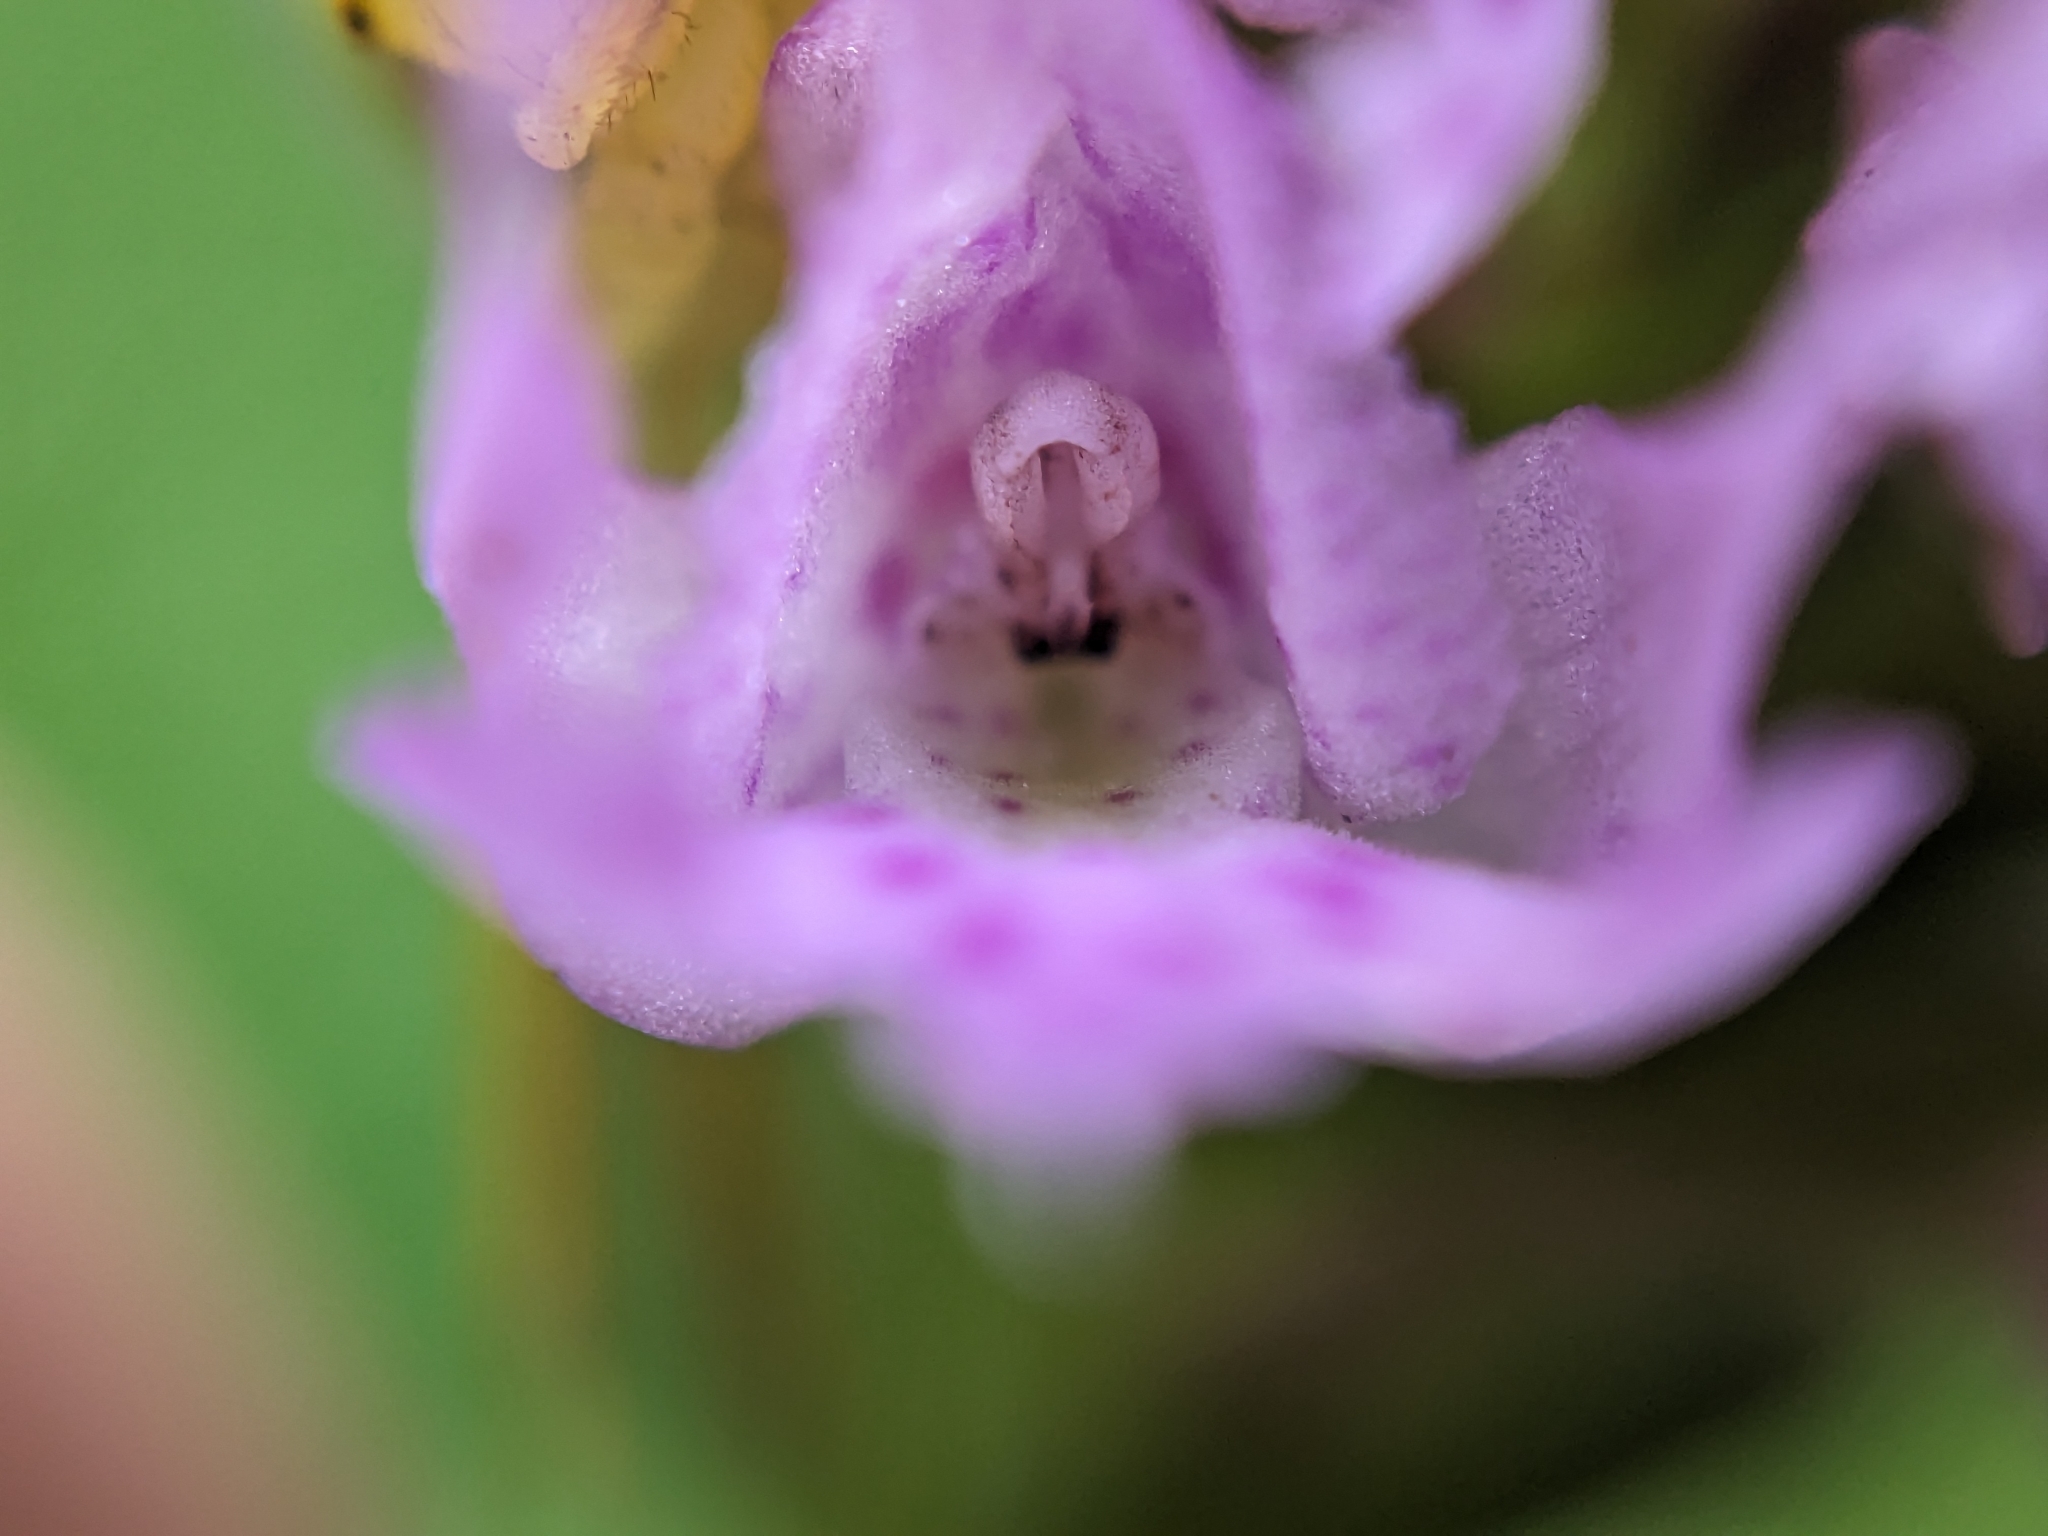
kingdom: Plantae
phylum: Tracheophyta
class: Liliopsida
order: Asparagales
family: Orchidaceae
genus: Traunsteinera
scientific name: Traunsteinera globosa
